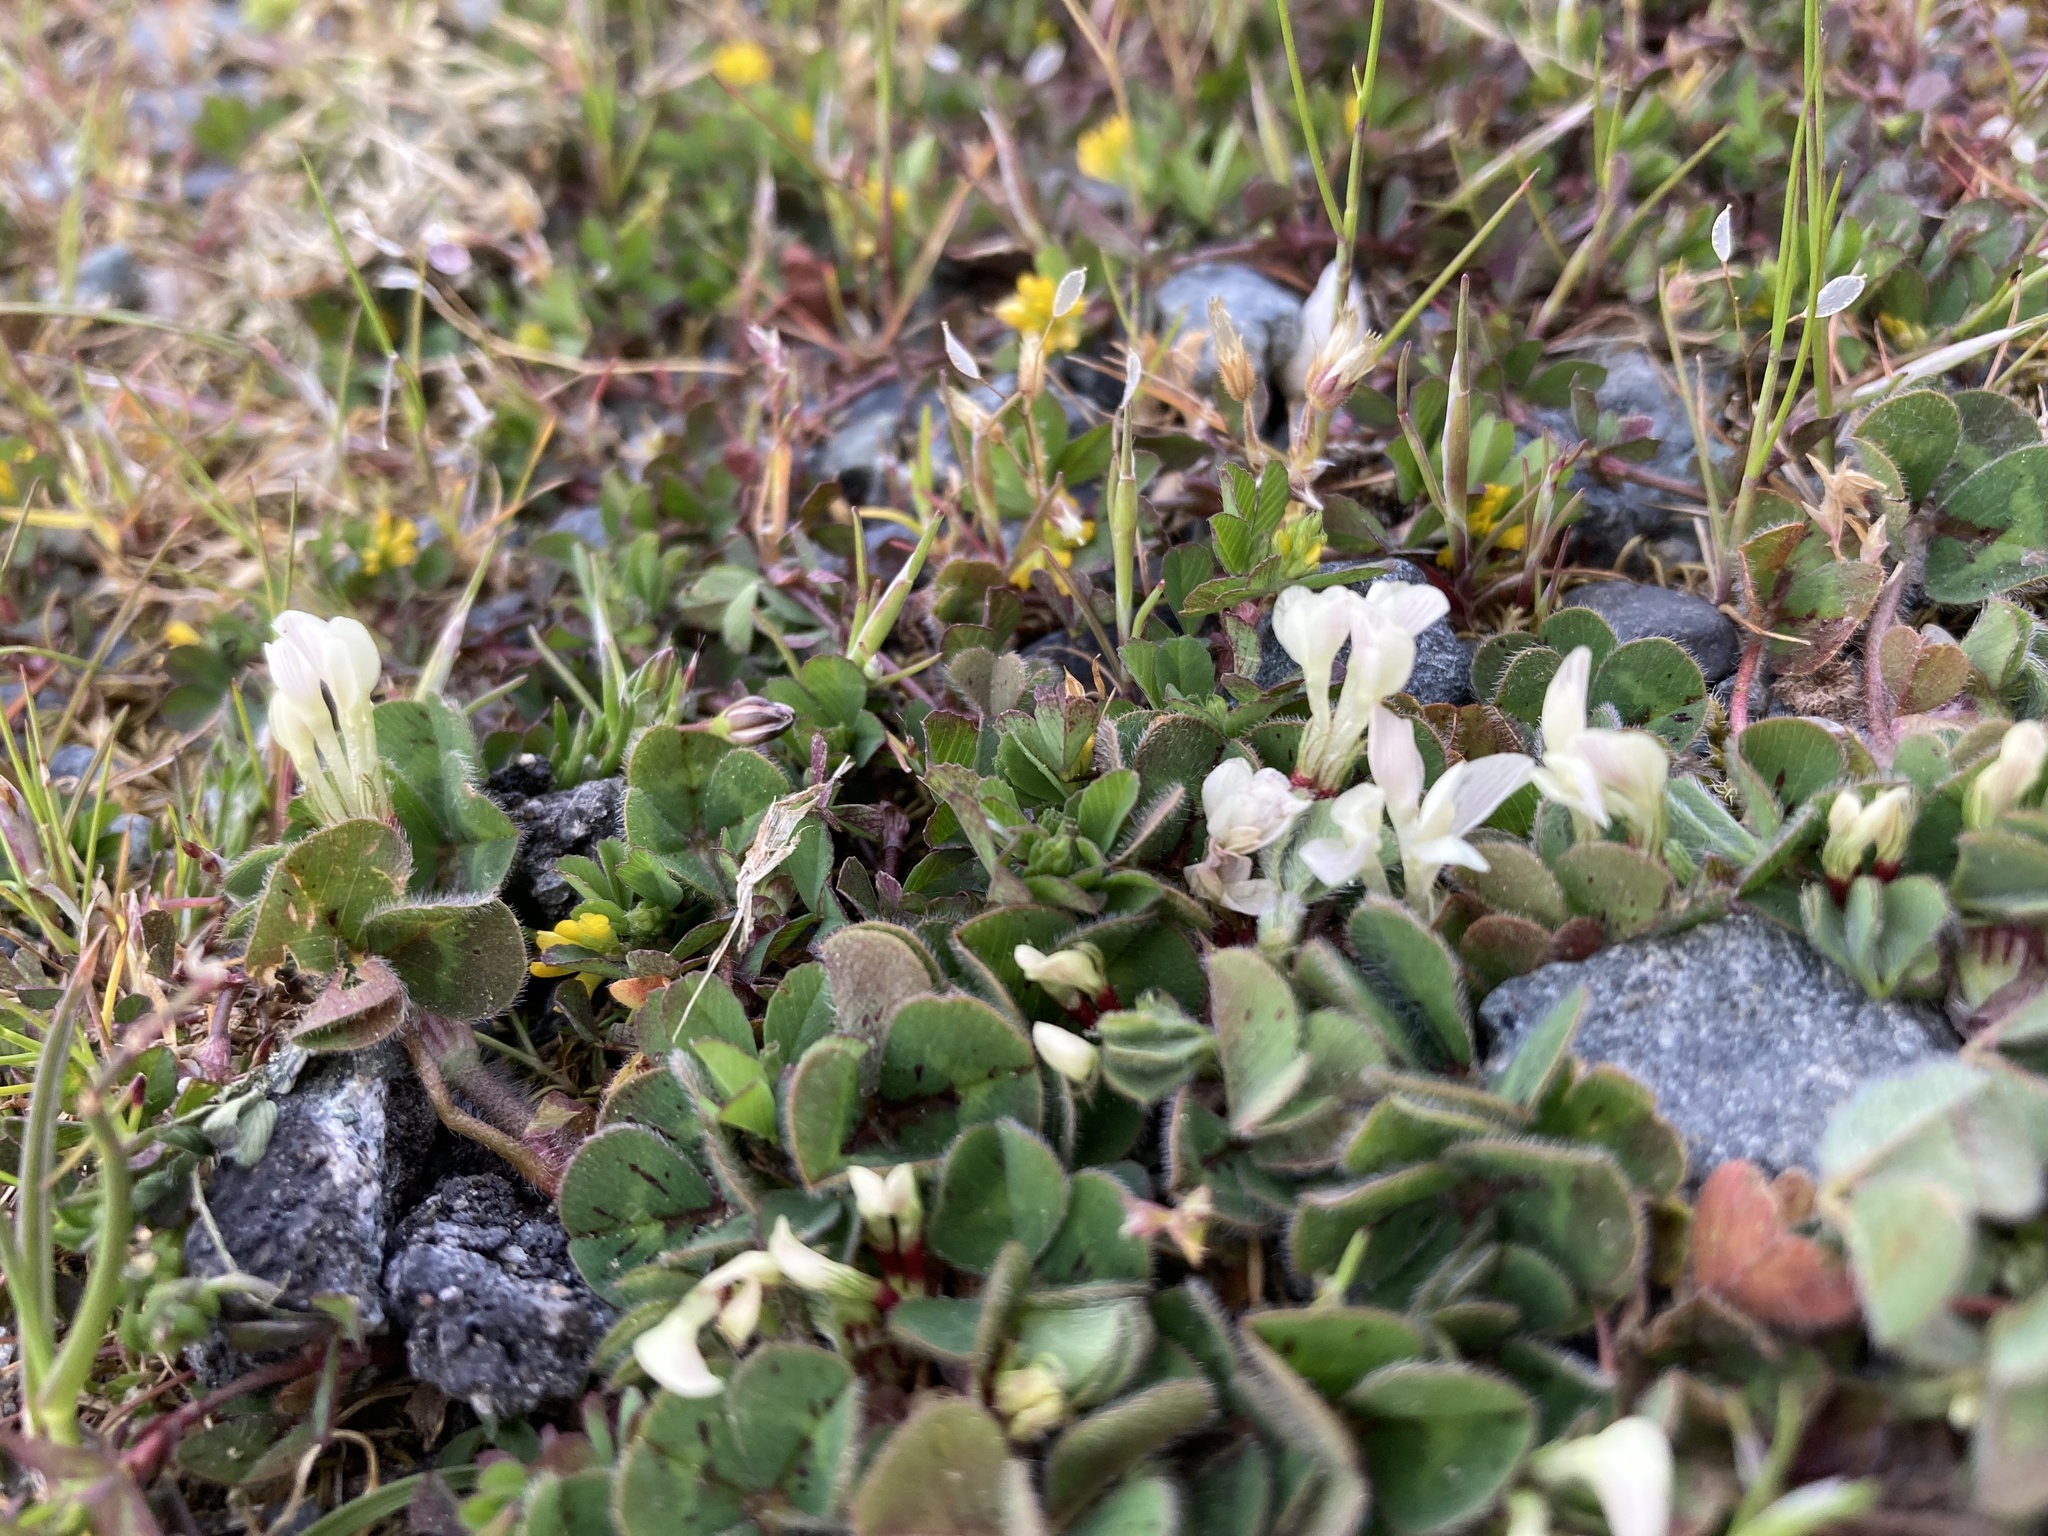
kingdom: Plantae
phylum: Tracheophyta
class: Magnoliopsida
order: Fabales
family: Fabaceae
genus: Trifolium
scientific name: Trifolium subterraneum
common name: Subterranean clover
